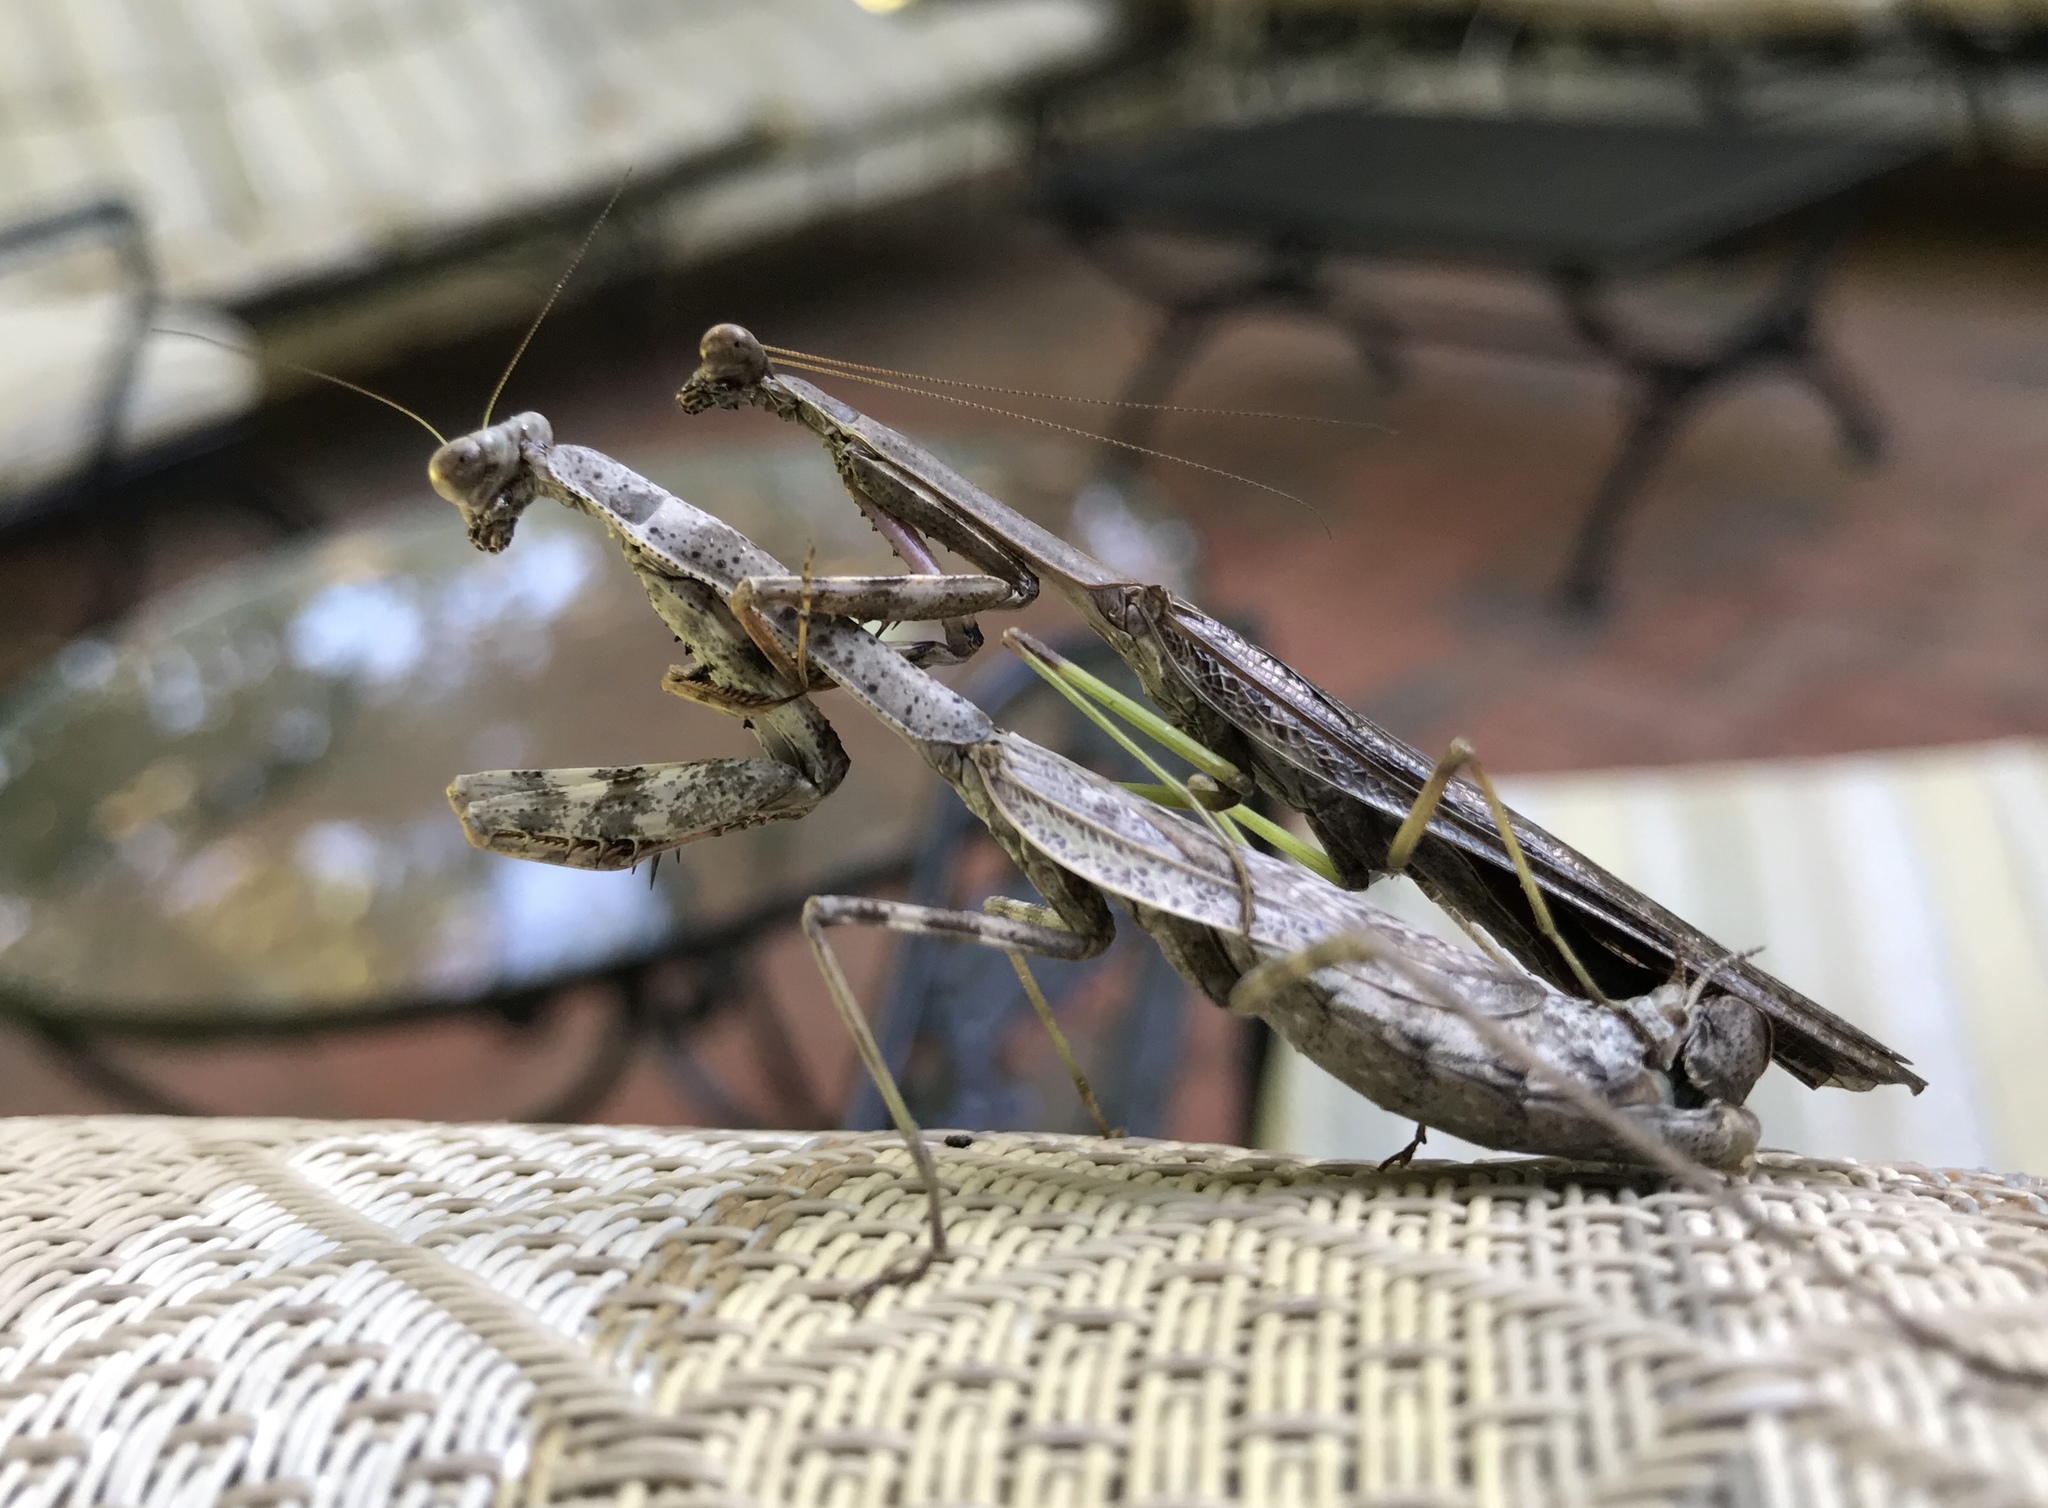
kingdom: Animalia
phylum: Arthropoda
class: Insecta
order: Mantodea
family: Mantidae
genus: Stagmomantis
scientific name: Stagmomantis carolina
